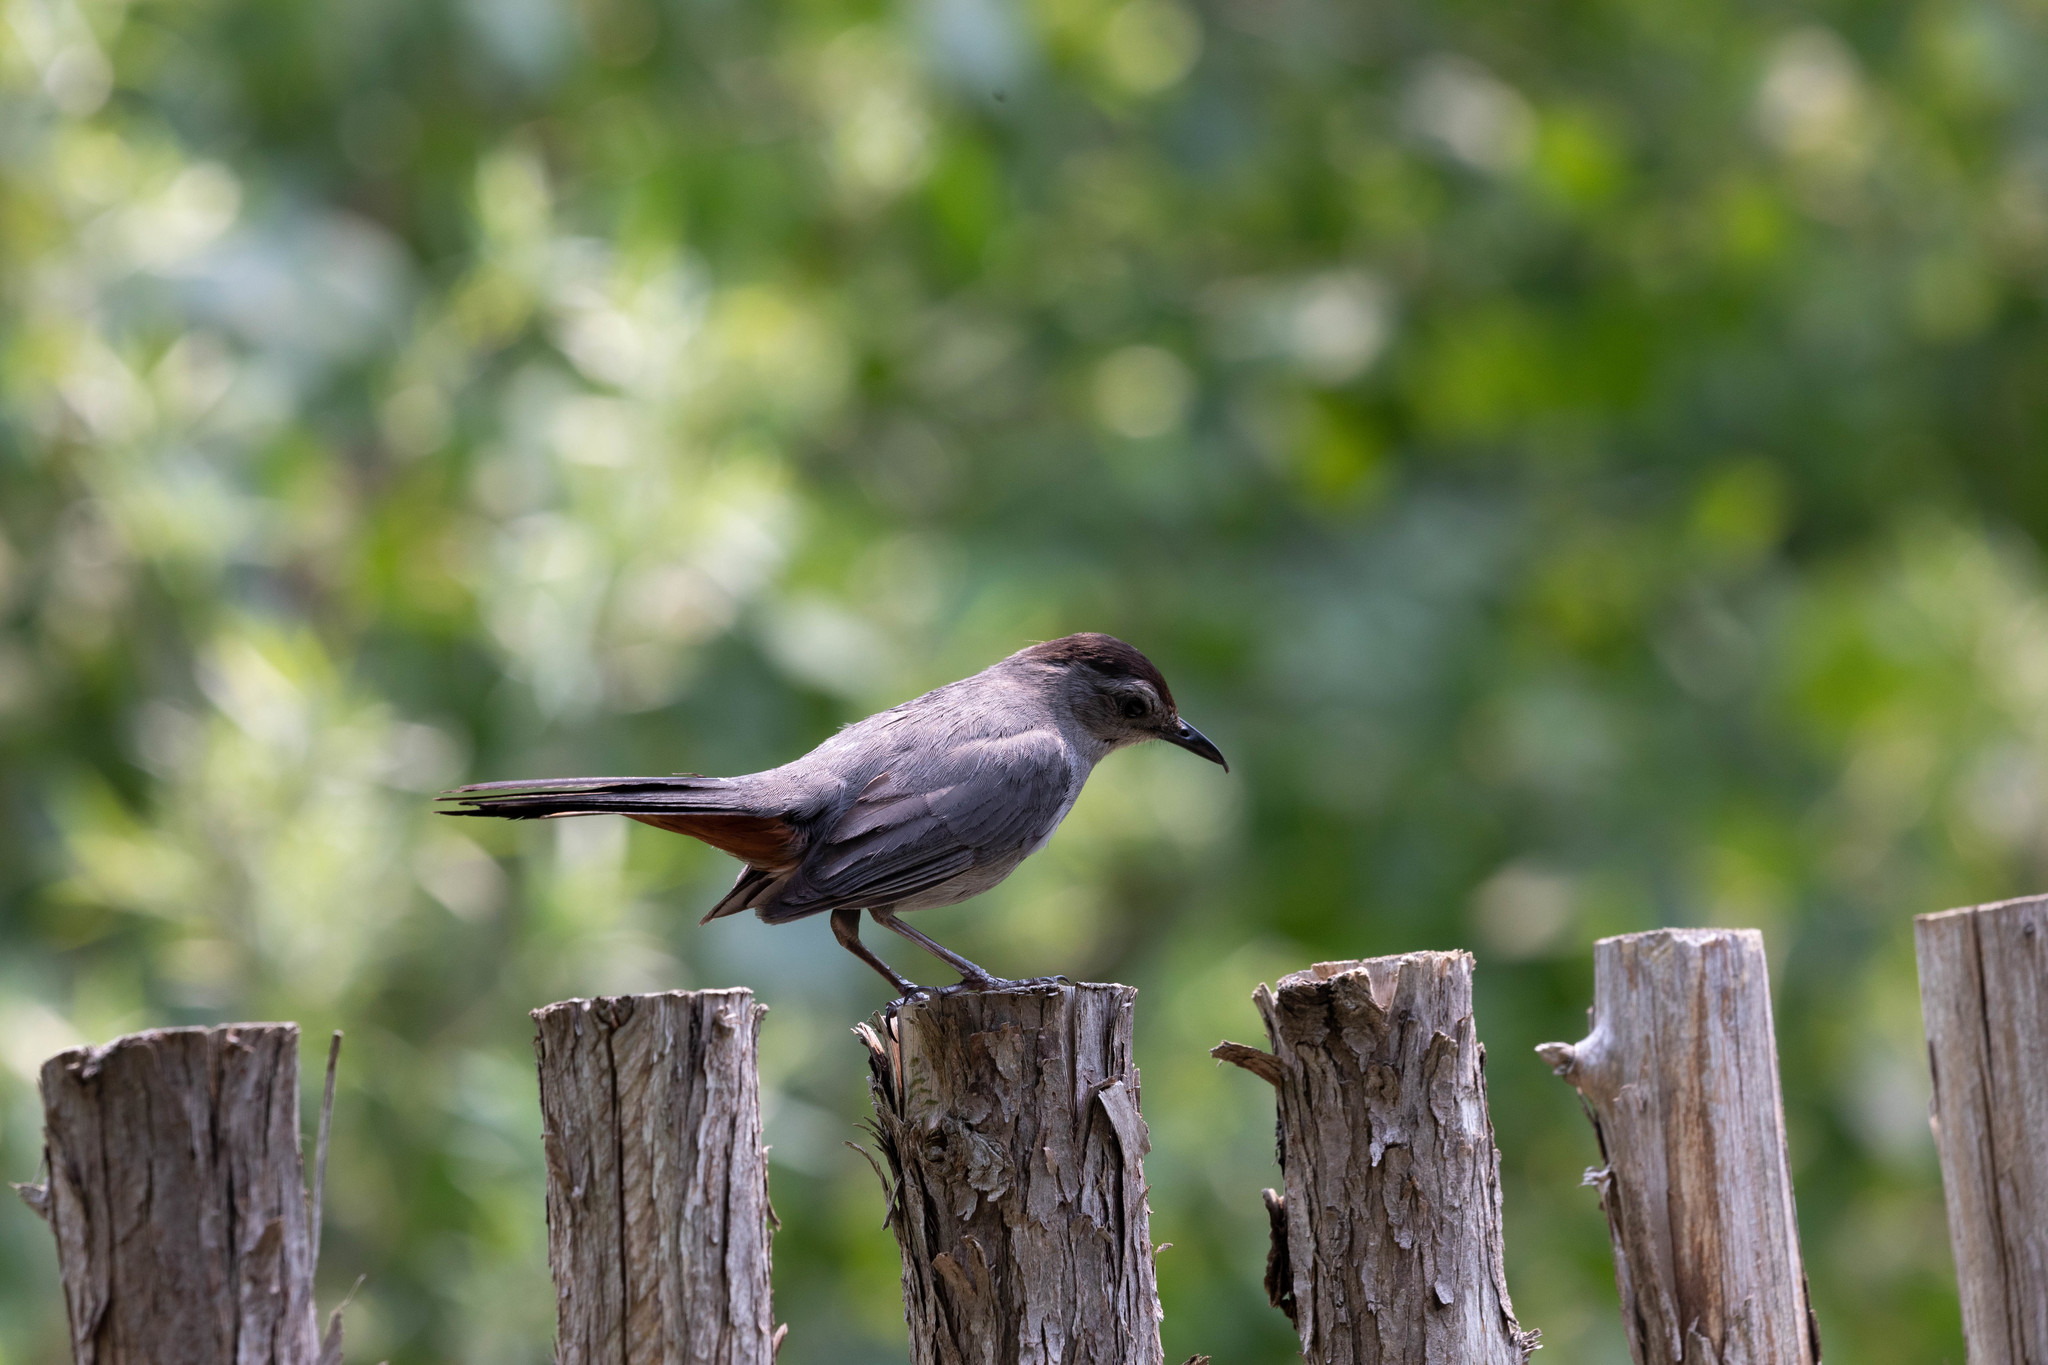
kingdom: Animalia
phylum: Chordata
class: Aves
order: Passeriformes
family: Mimidae
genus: Dumetella
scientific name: Dumetella carolinensis
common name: Gray catbird
